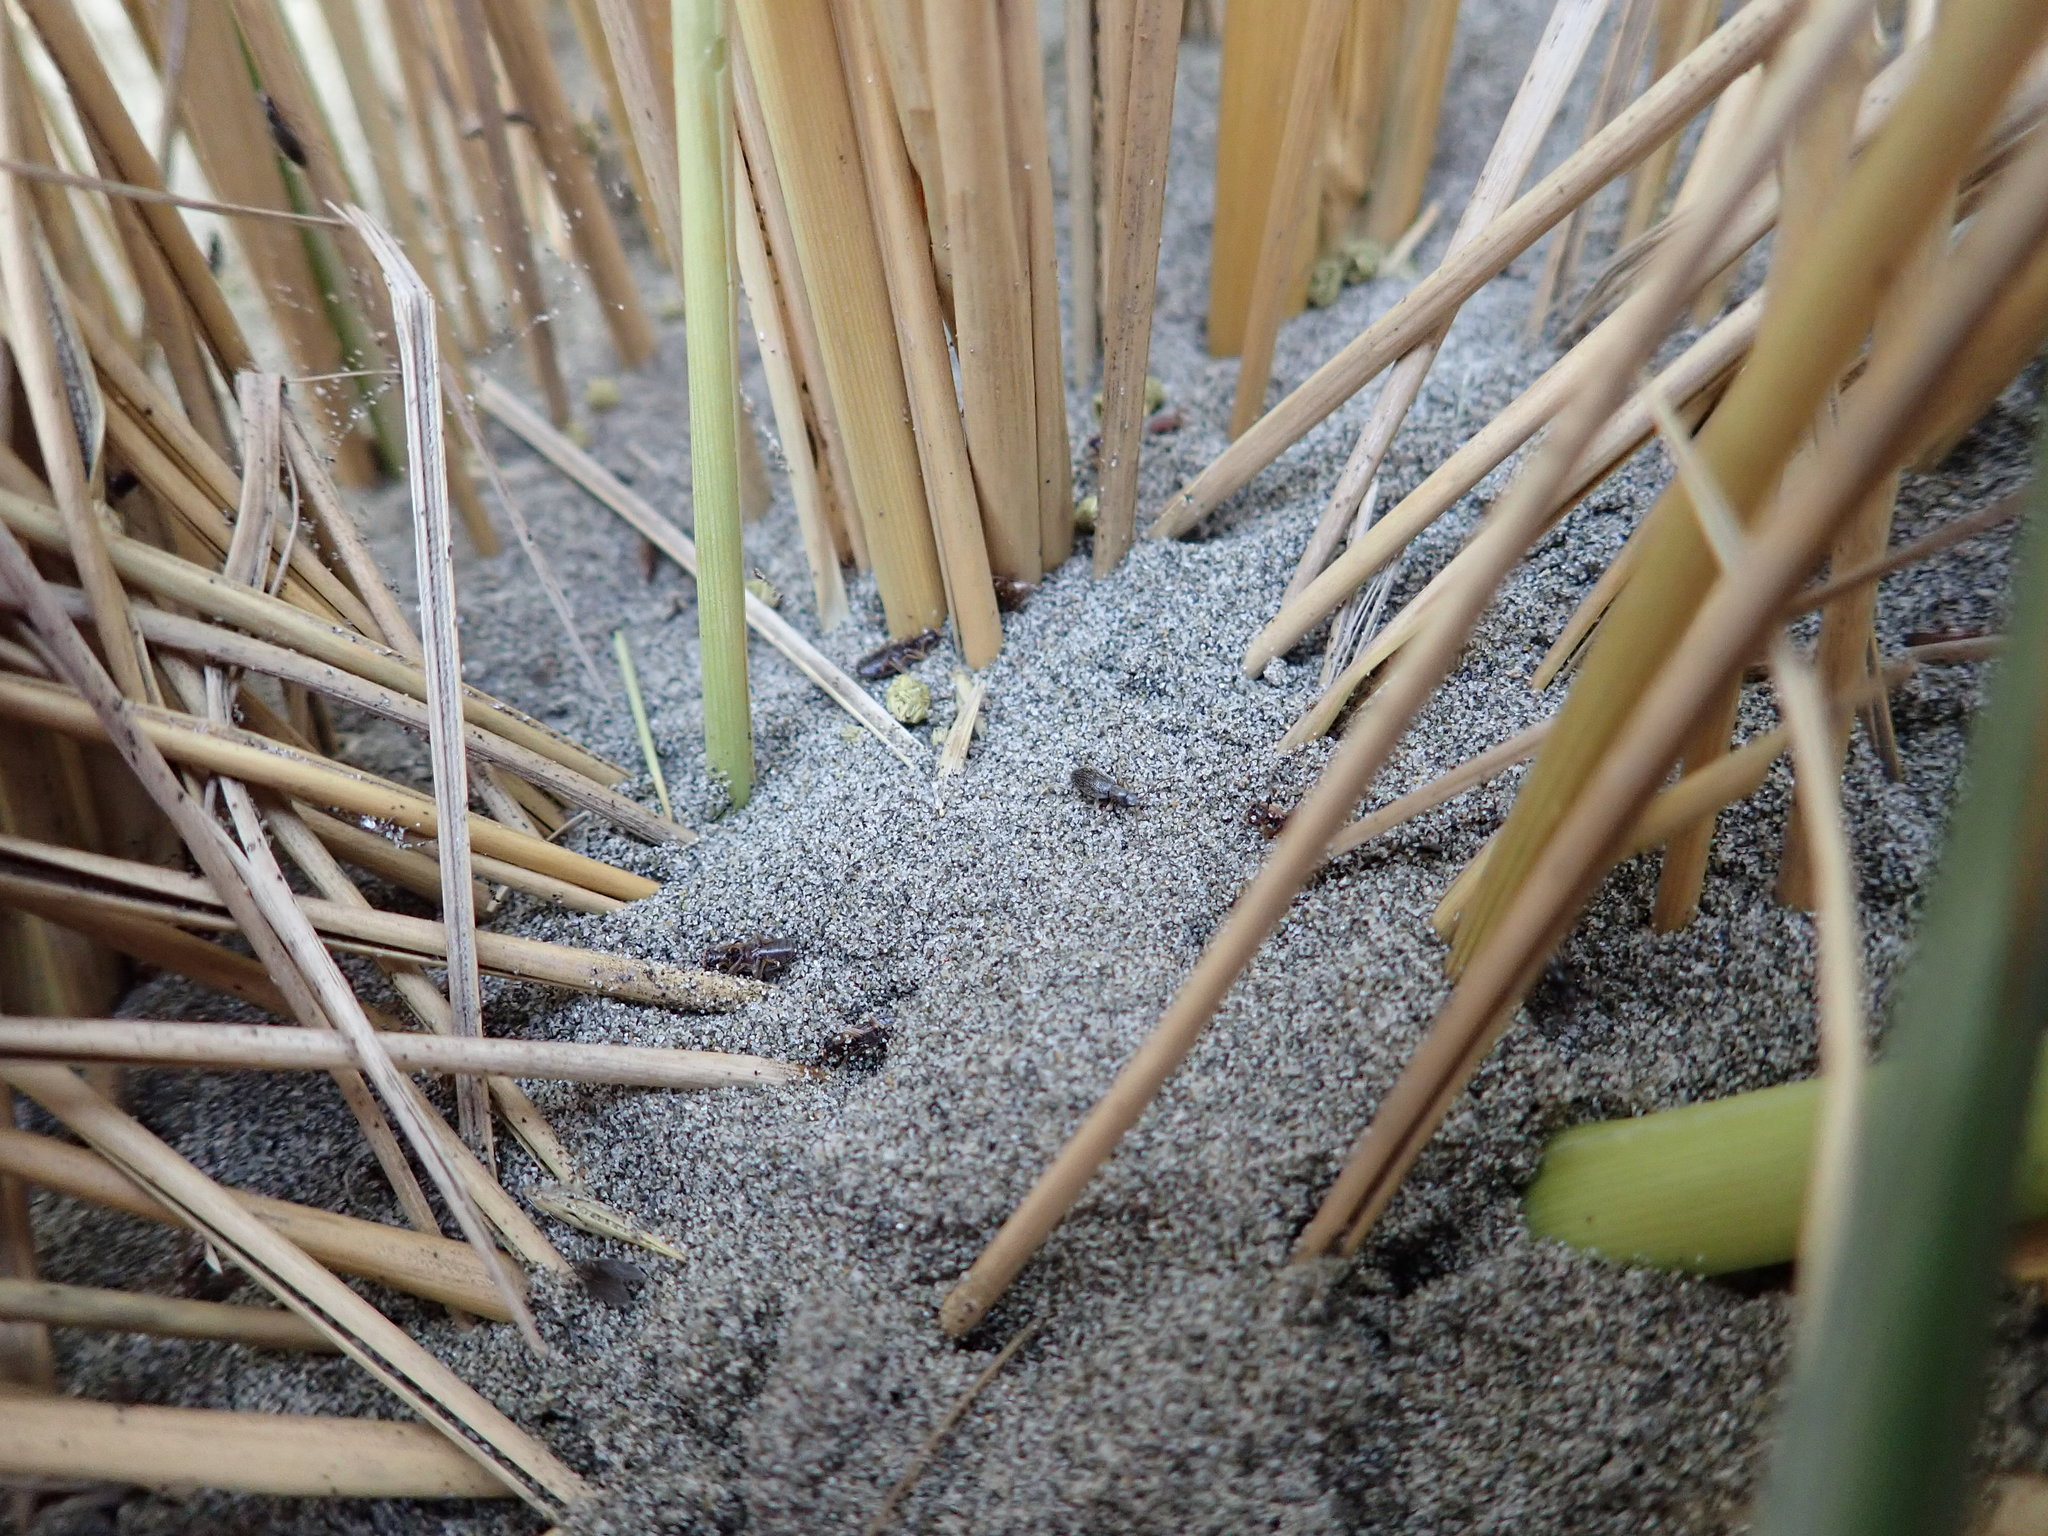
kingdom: Animalia
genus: Lagrioda
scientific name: Lagrioda brounii
